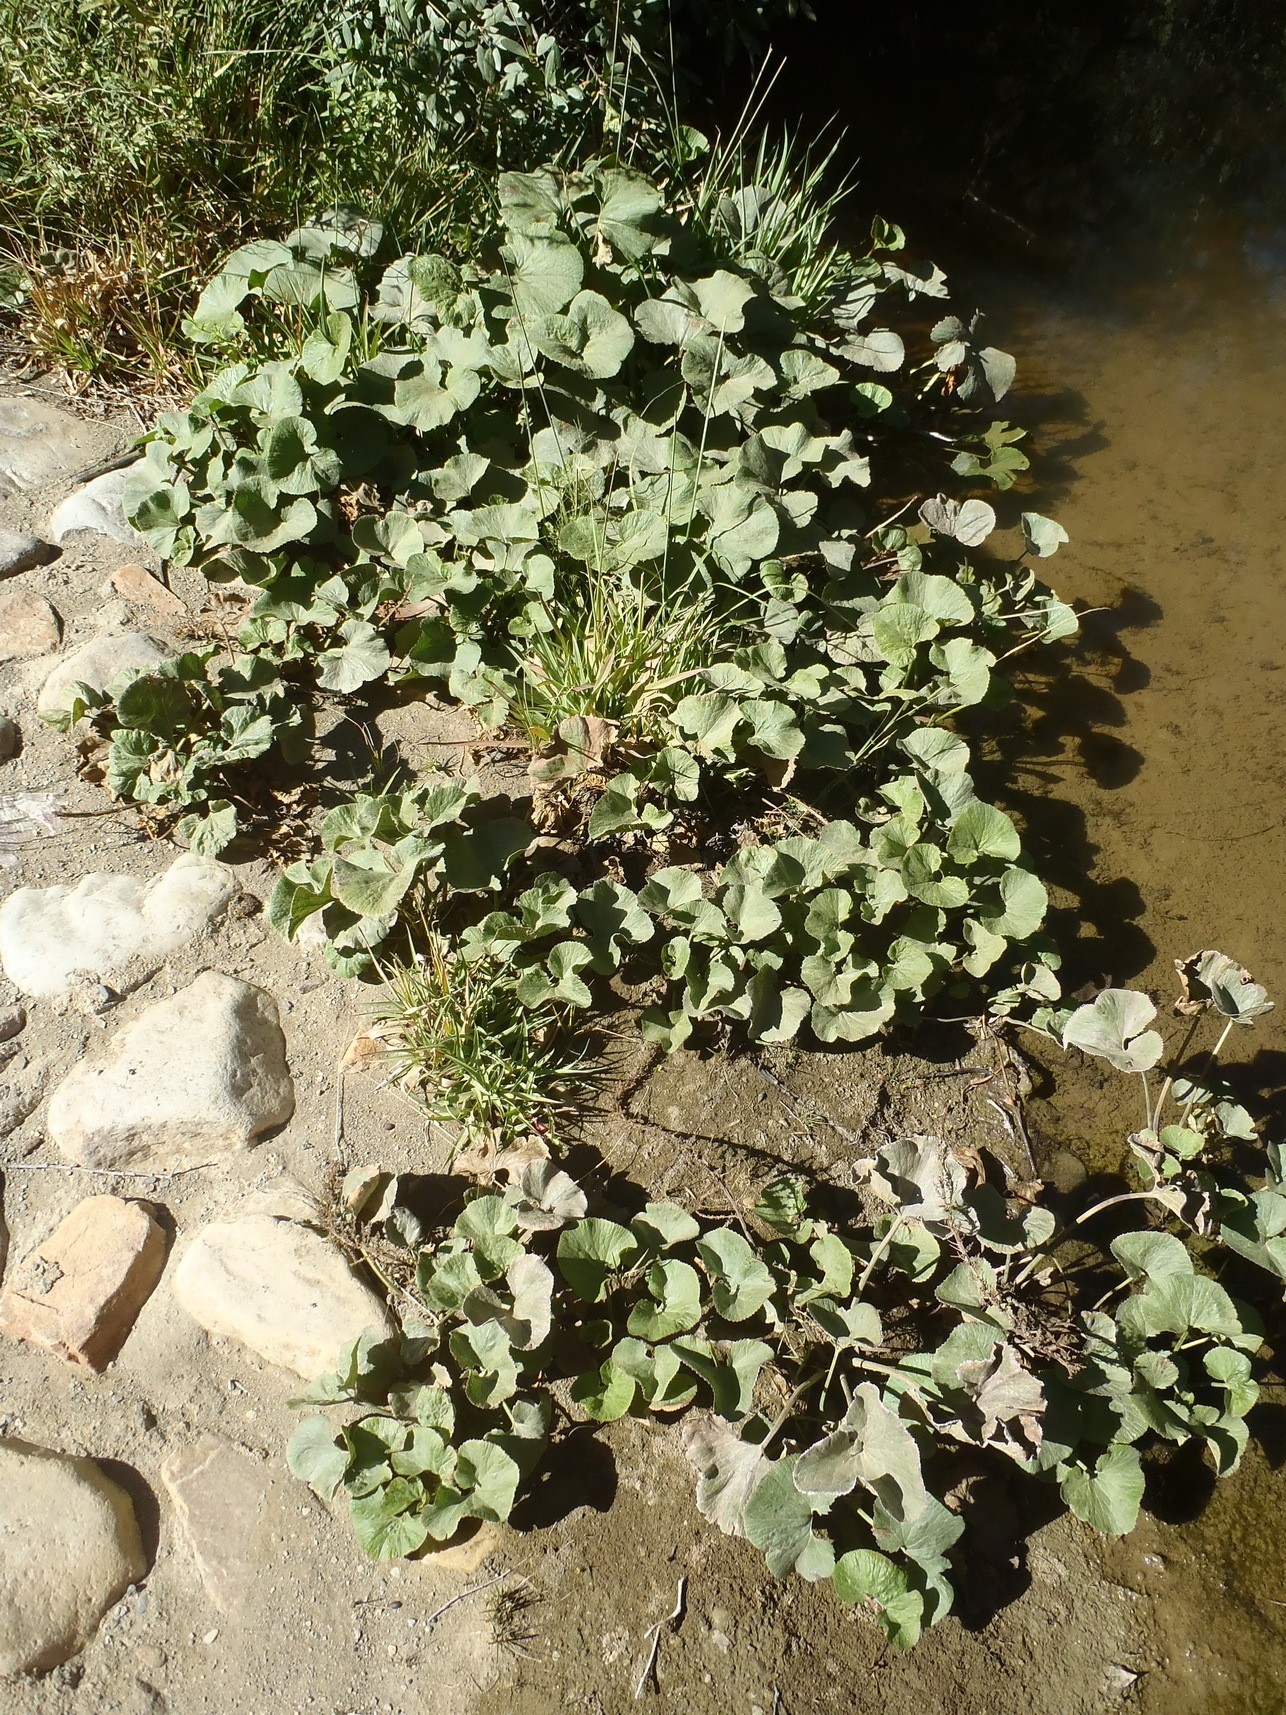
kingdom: Plantae
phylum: Tracheophyta
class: Magnoliopsida
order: Gunnerales
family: Gunneraceae
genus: Gunnera
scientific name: Gunnera perpensa
